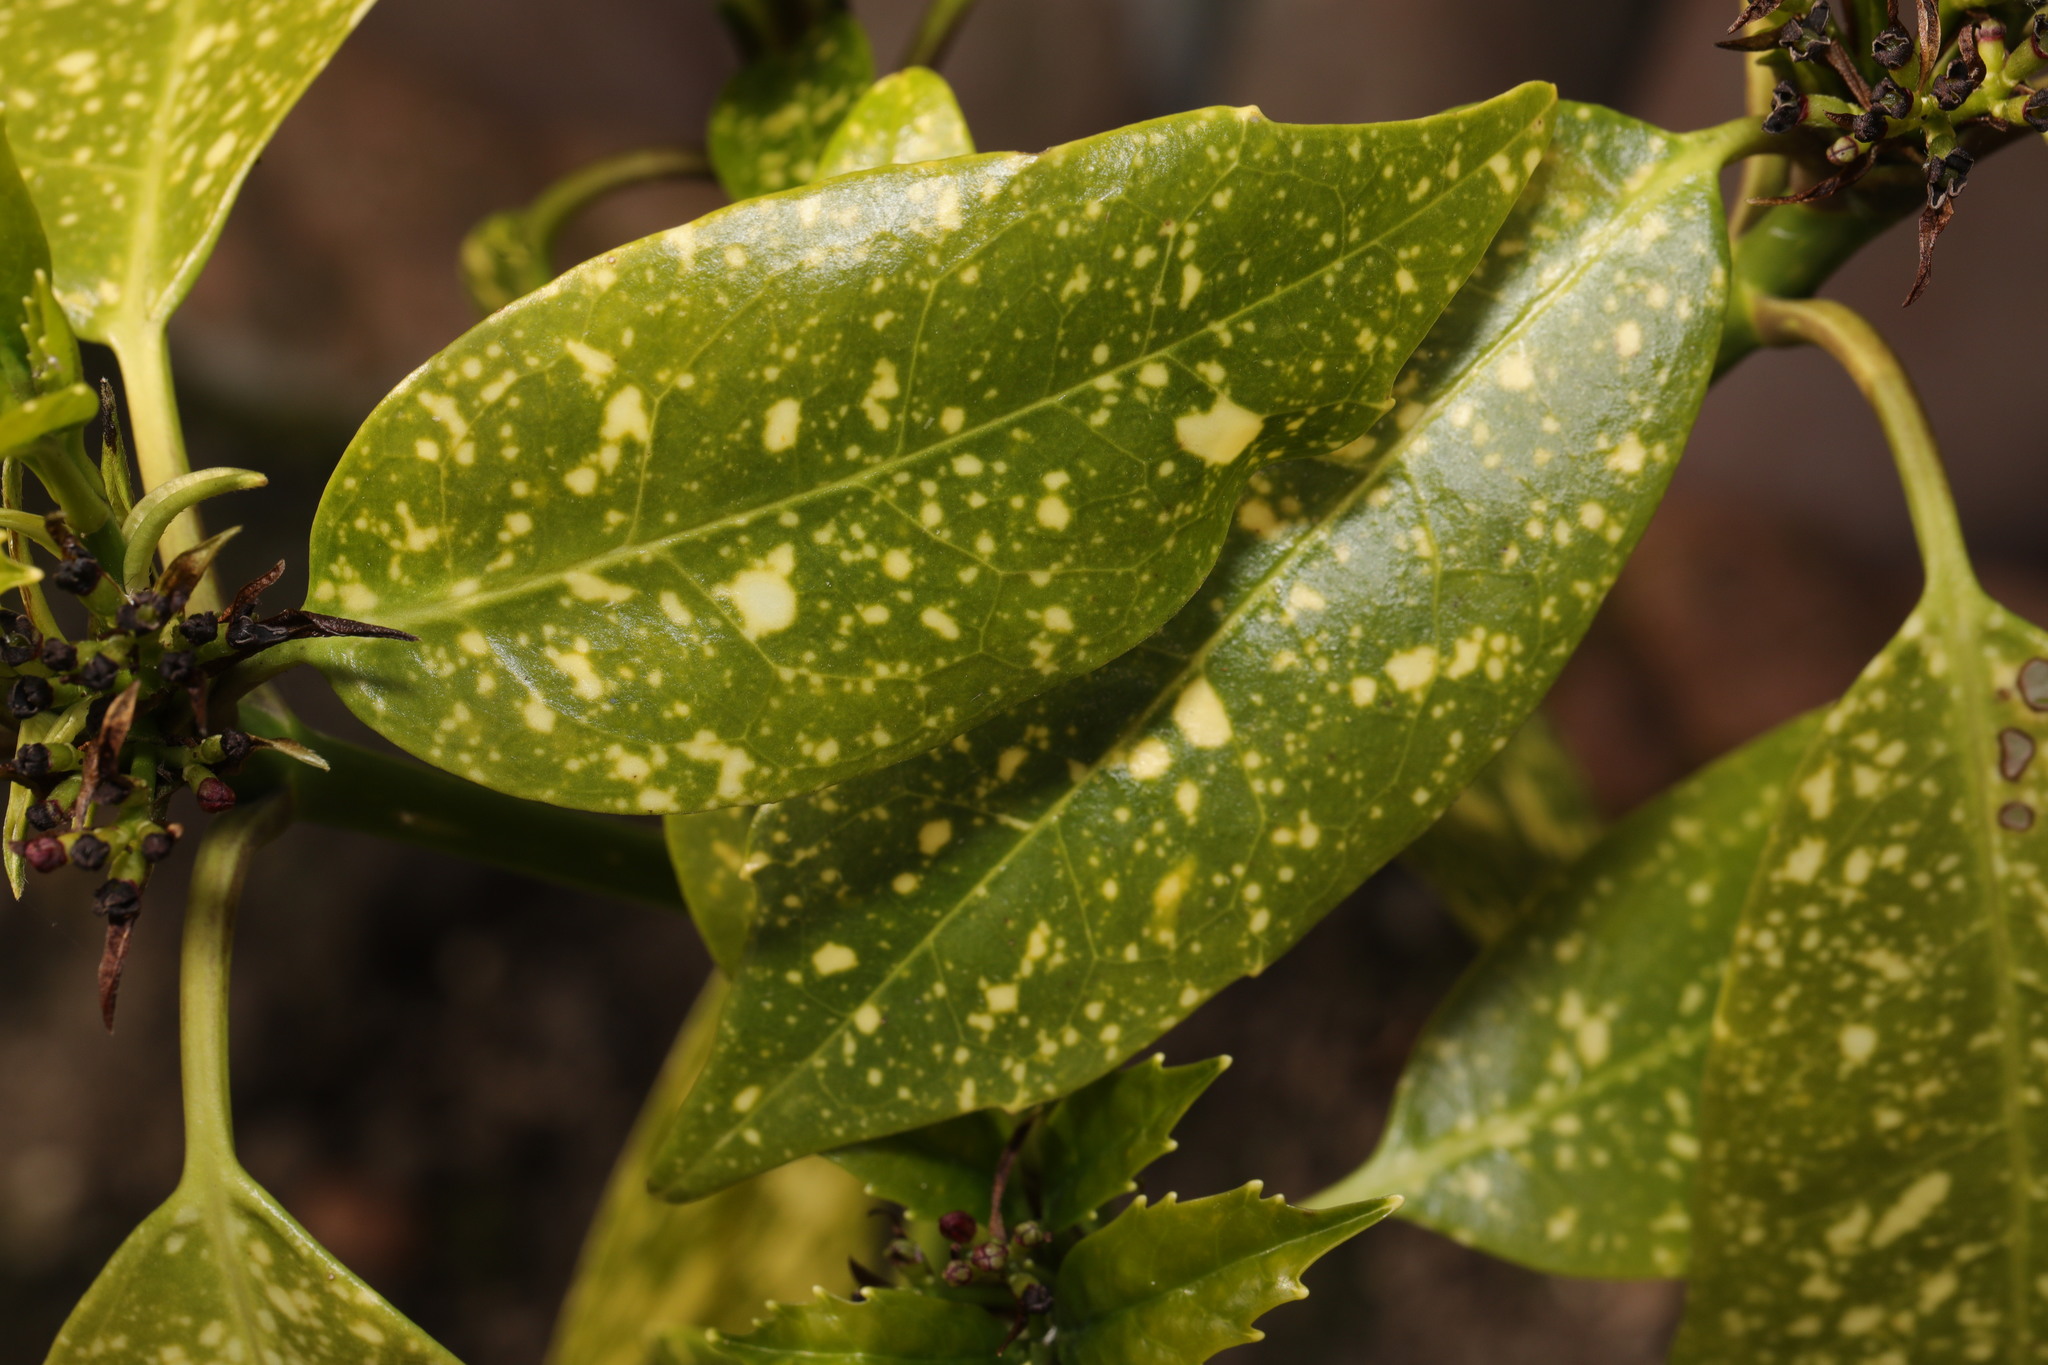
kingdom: Plantae
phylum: Tracheophyta
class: Magnoliopsida
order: Garryales
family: Garryaceae
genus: Aucuba
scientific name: Aucuba japonica
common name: Spotted-laurel
